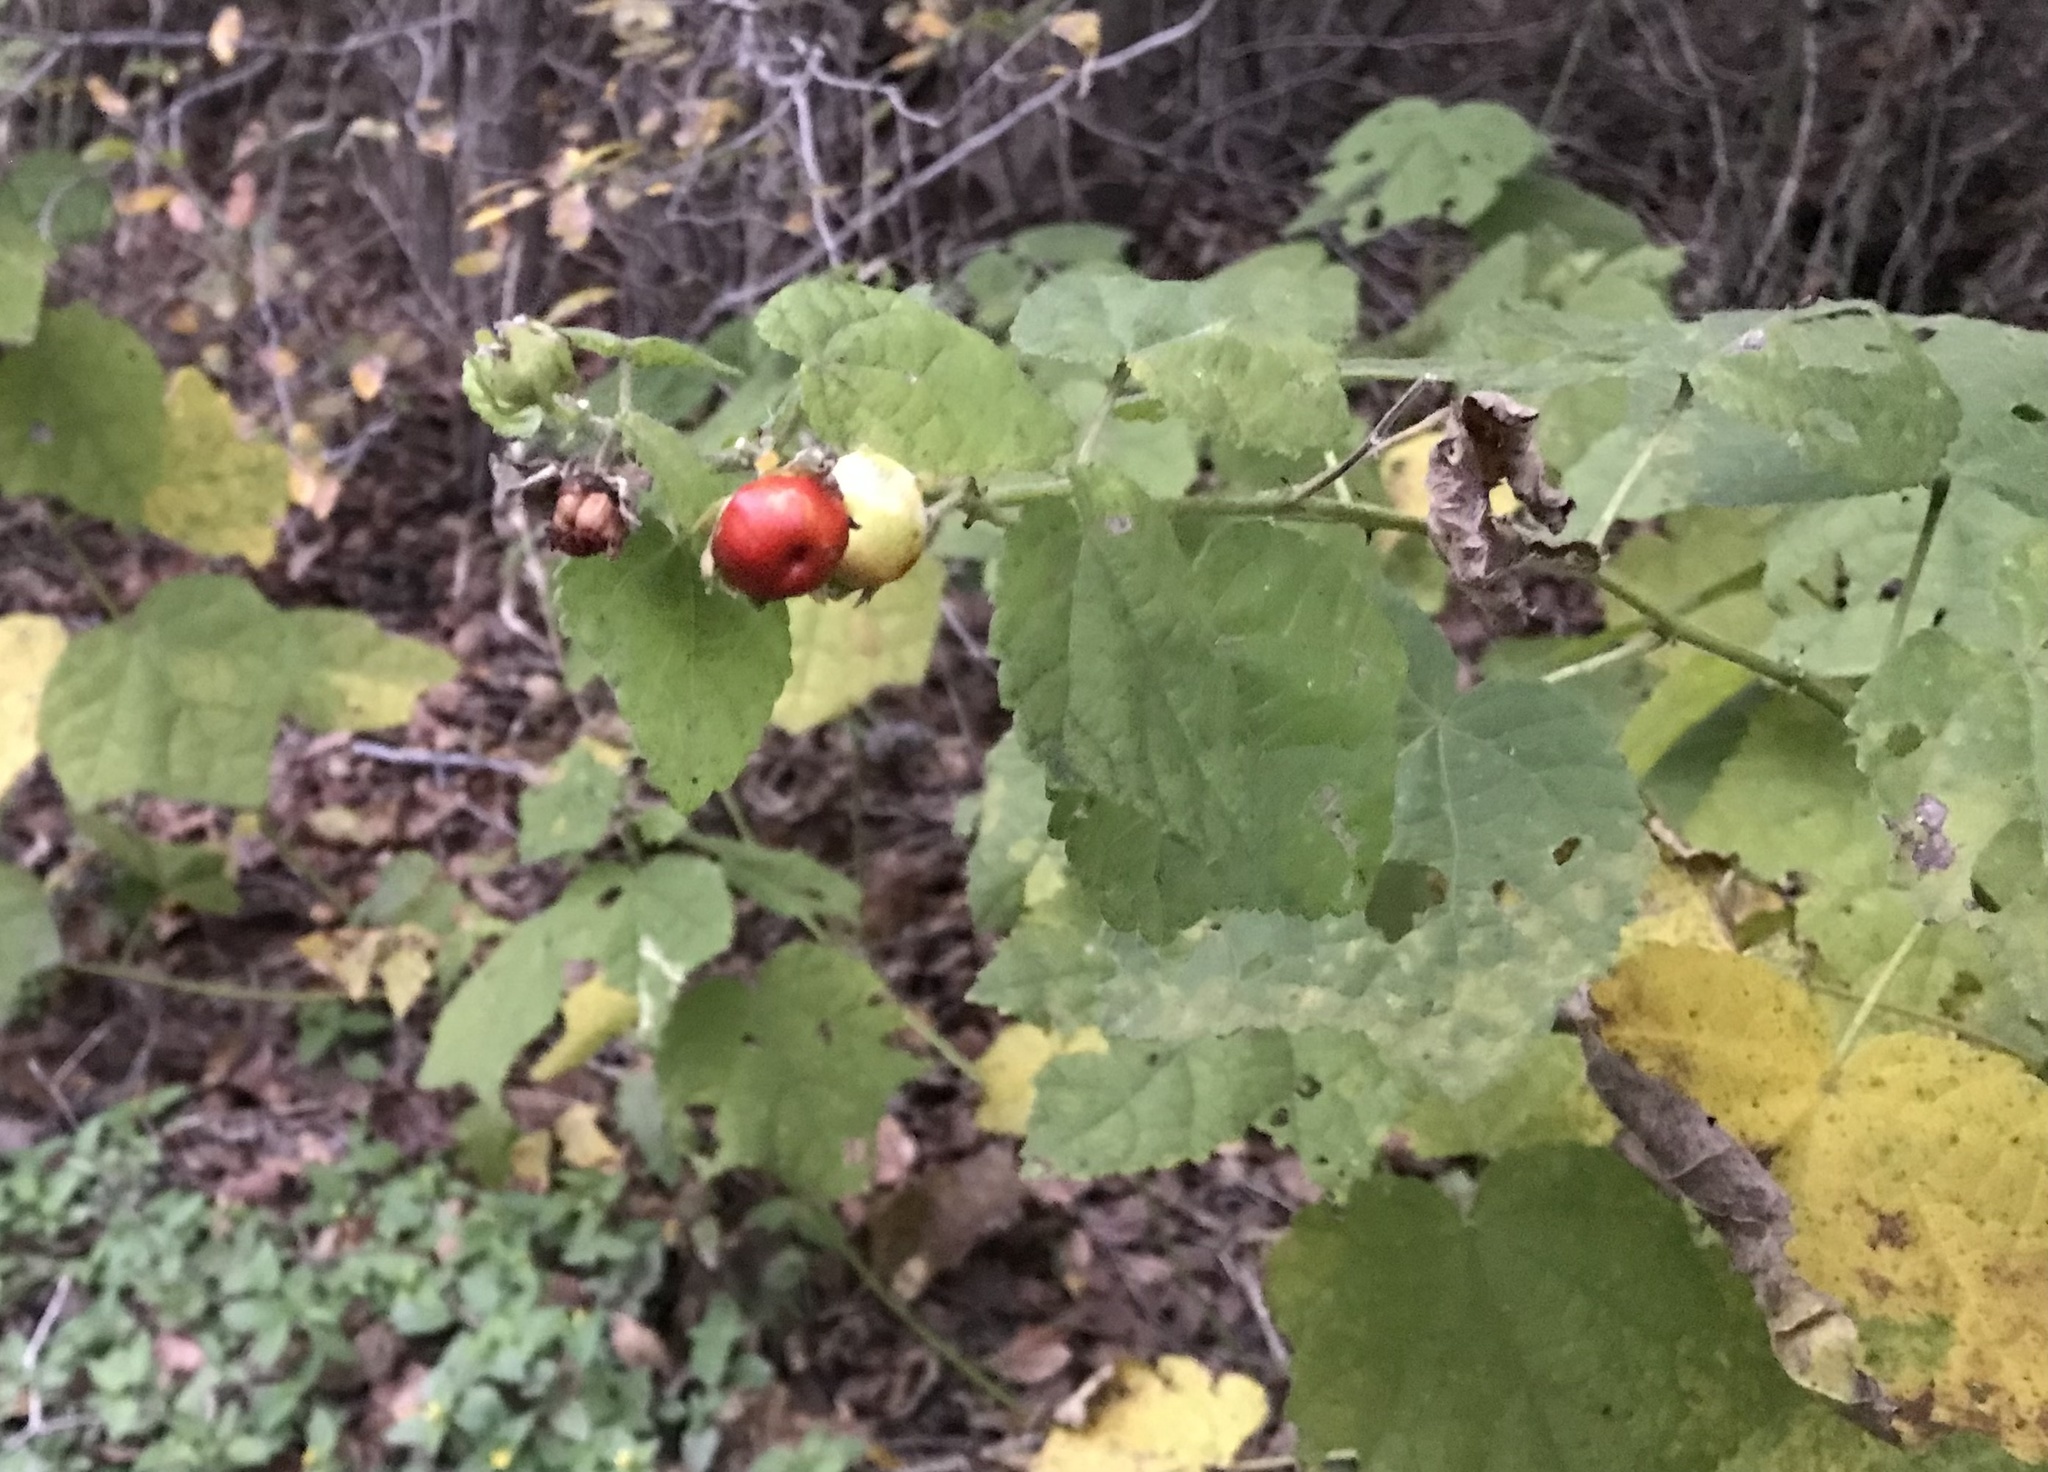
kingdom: Plantae
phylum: Tracheophyta
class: Magnoliopsida
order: Malvales
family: Malvaceae
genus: Malvaviscus
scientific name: Malvaviscus arboreus
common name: Wax mallow
